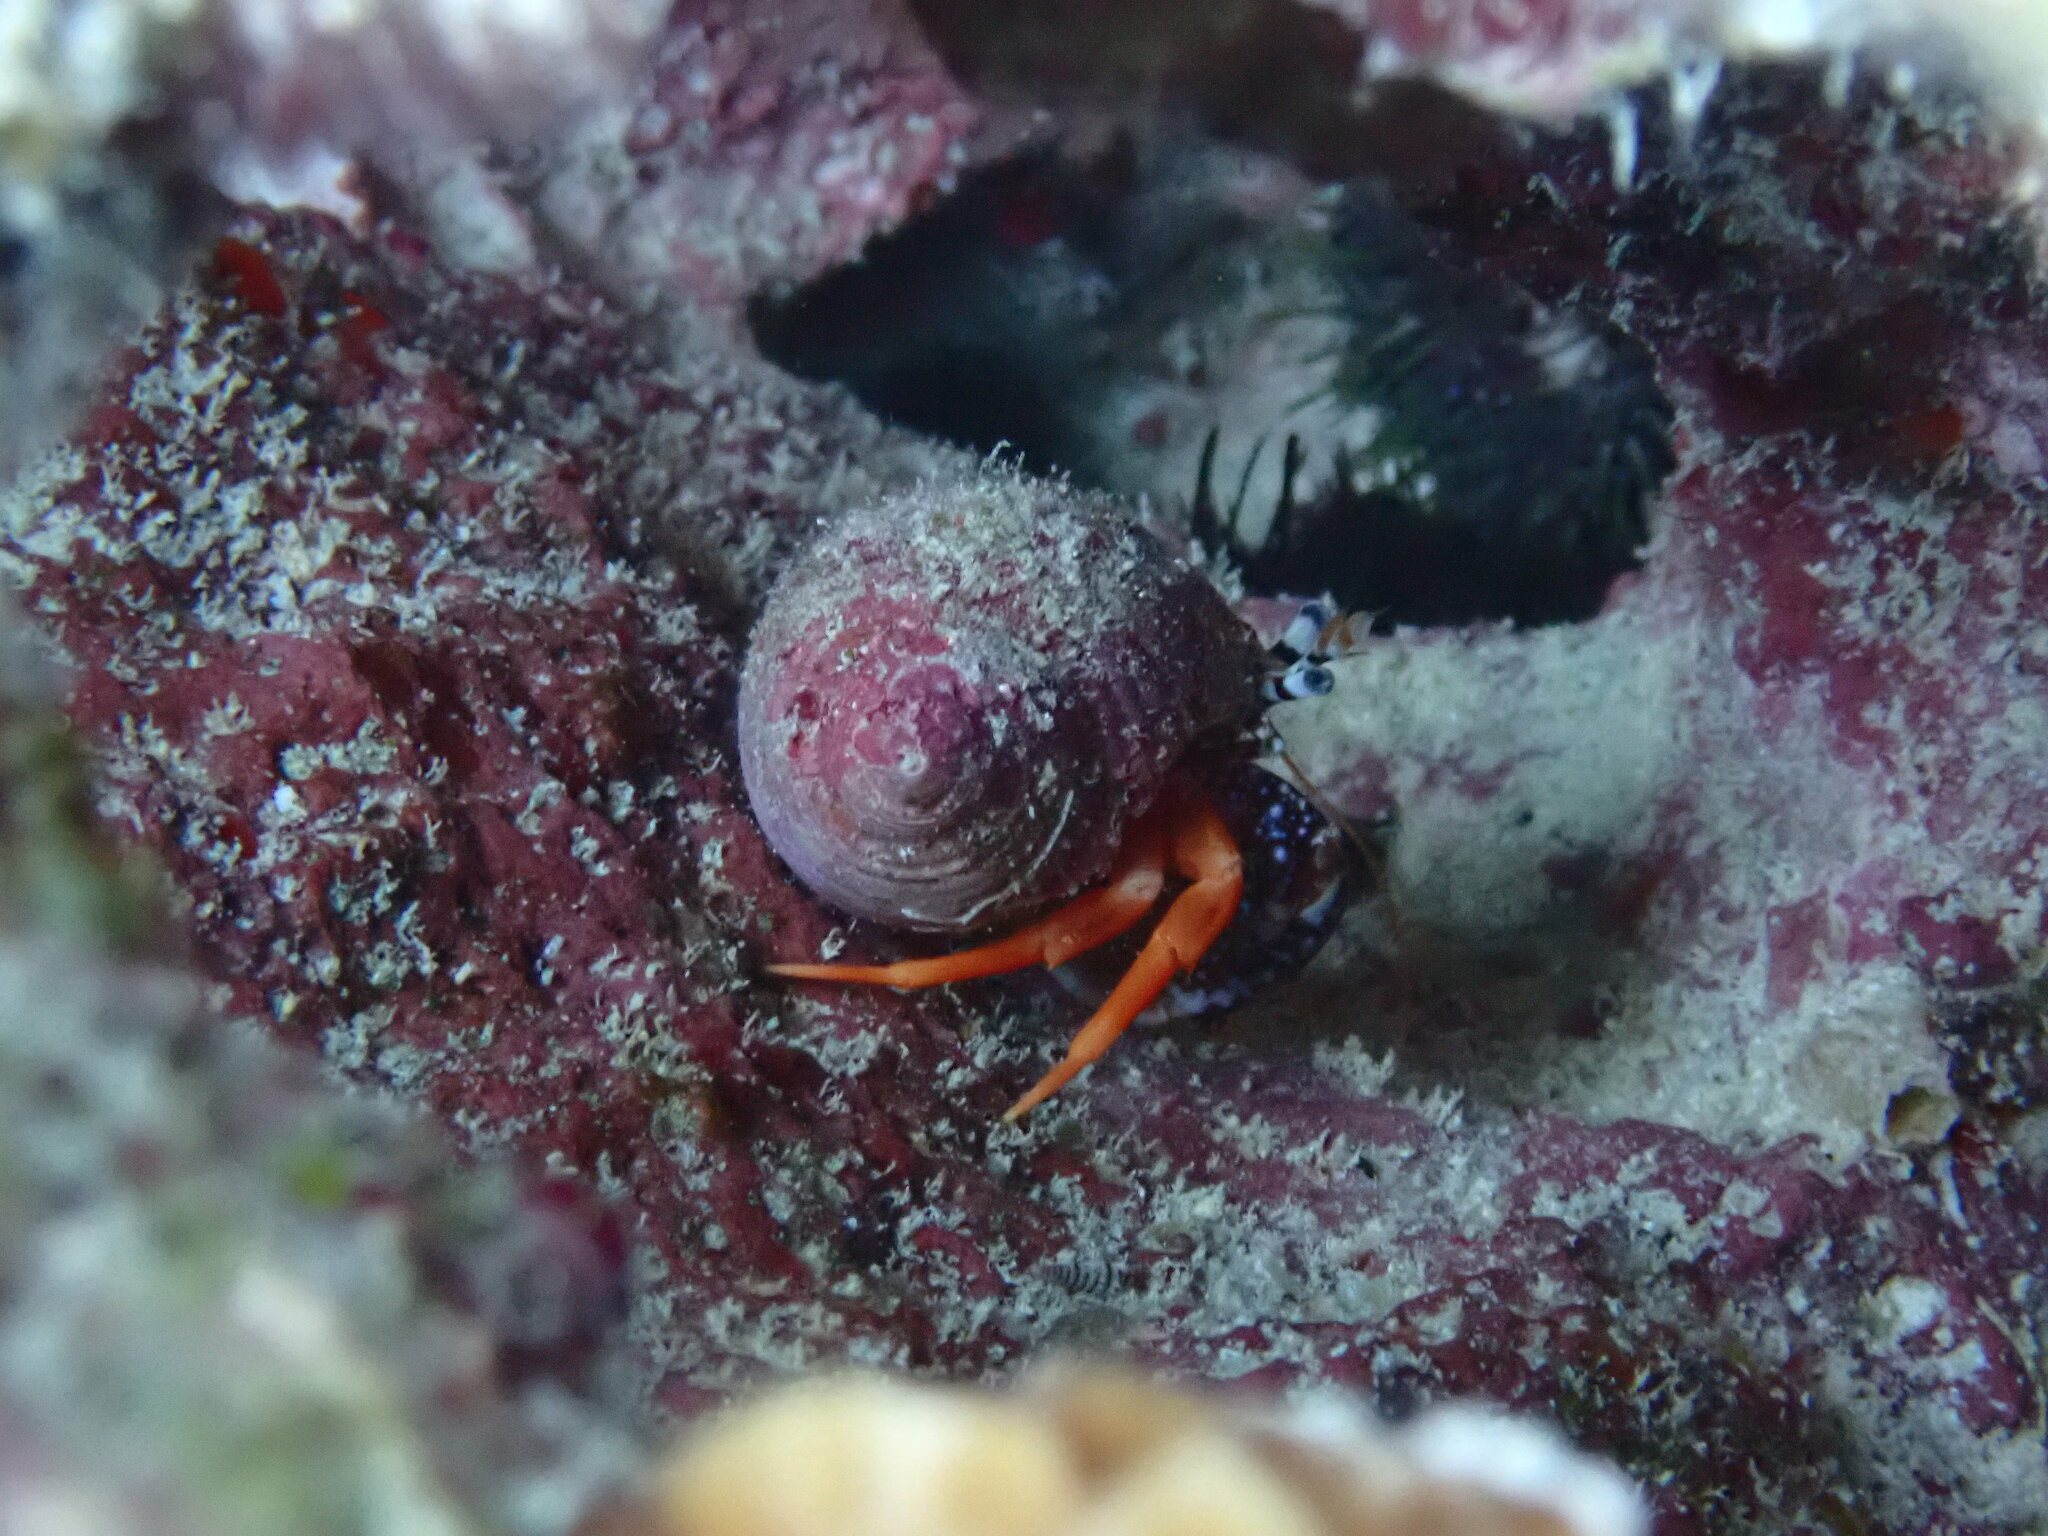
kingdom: Animalia
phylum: Arthropoda
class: Malacostraca
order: Decapoda
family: Paguridae
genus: Phimochirus
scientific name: Phimochirus operculatus
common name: Polkadotted hermit
